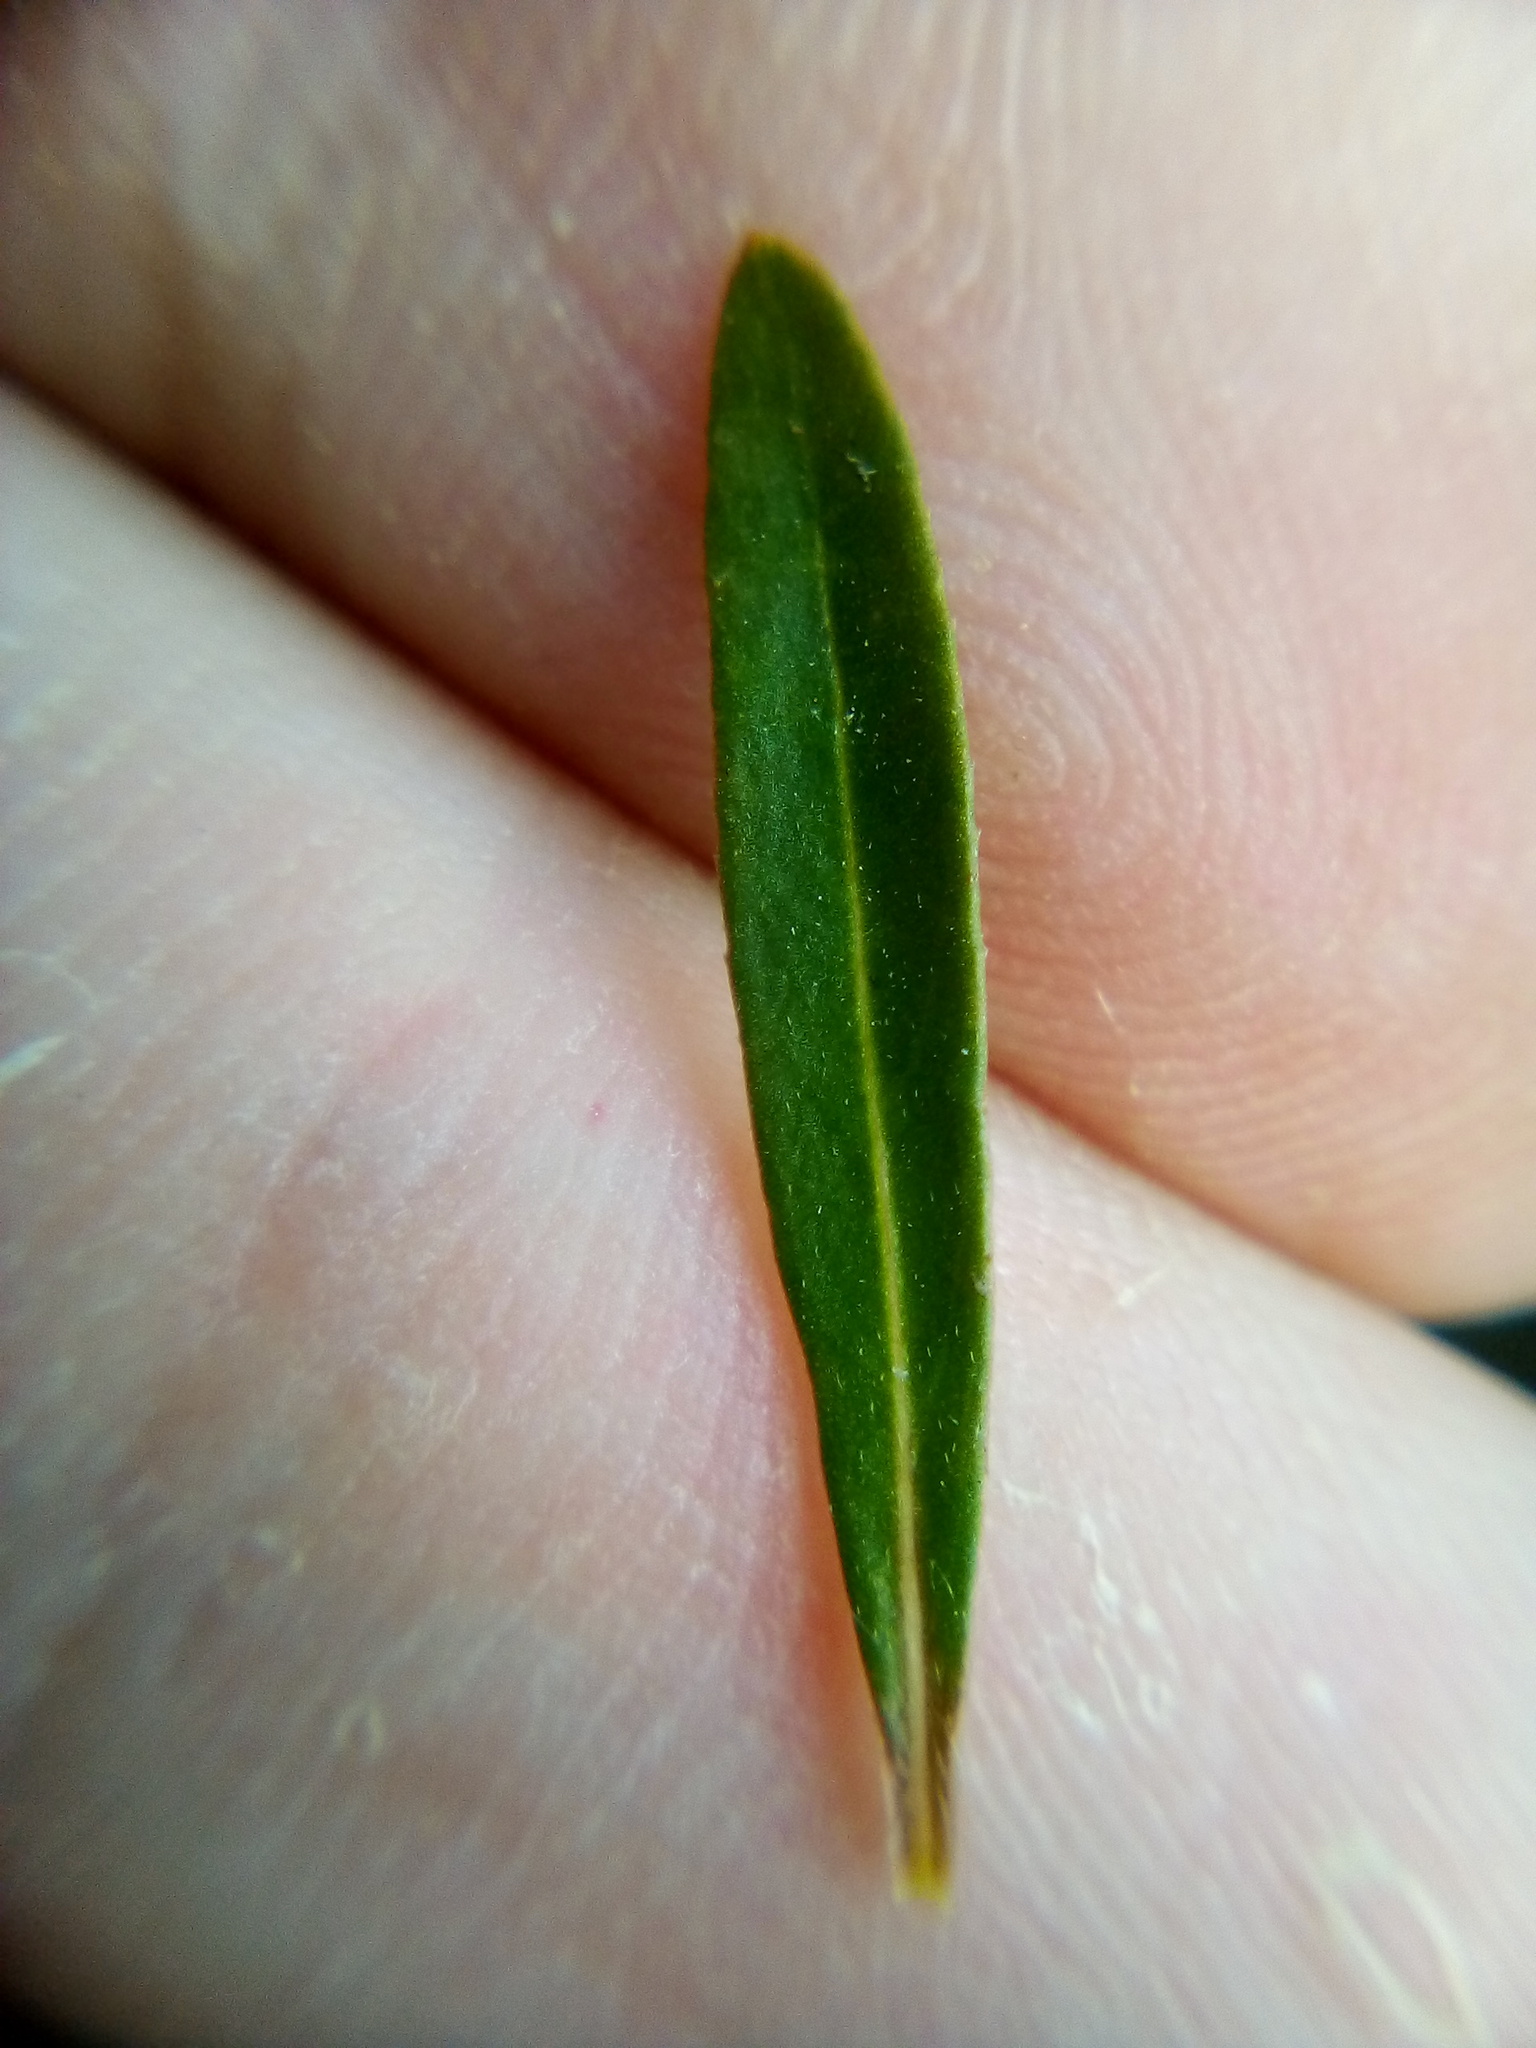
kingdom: Plantae
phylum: Tracheophyta
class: Magnoliopsida
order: Caryophyllales
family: Amaranthaceae
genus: Alternanthera
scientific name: Alternanthera nahui
